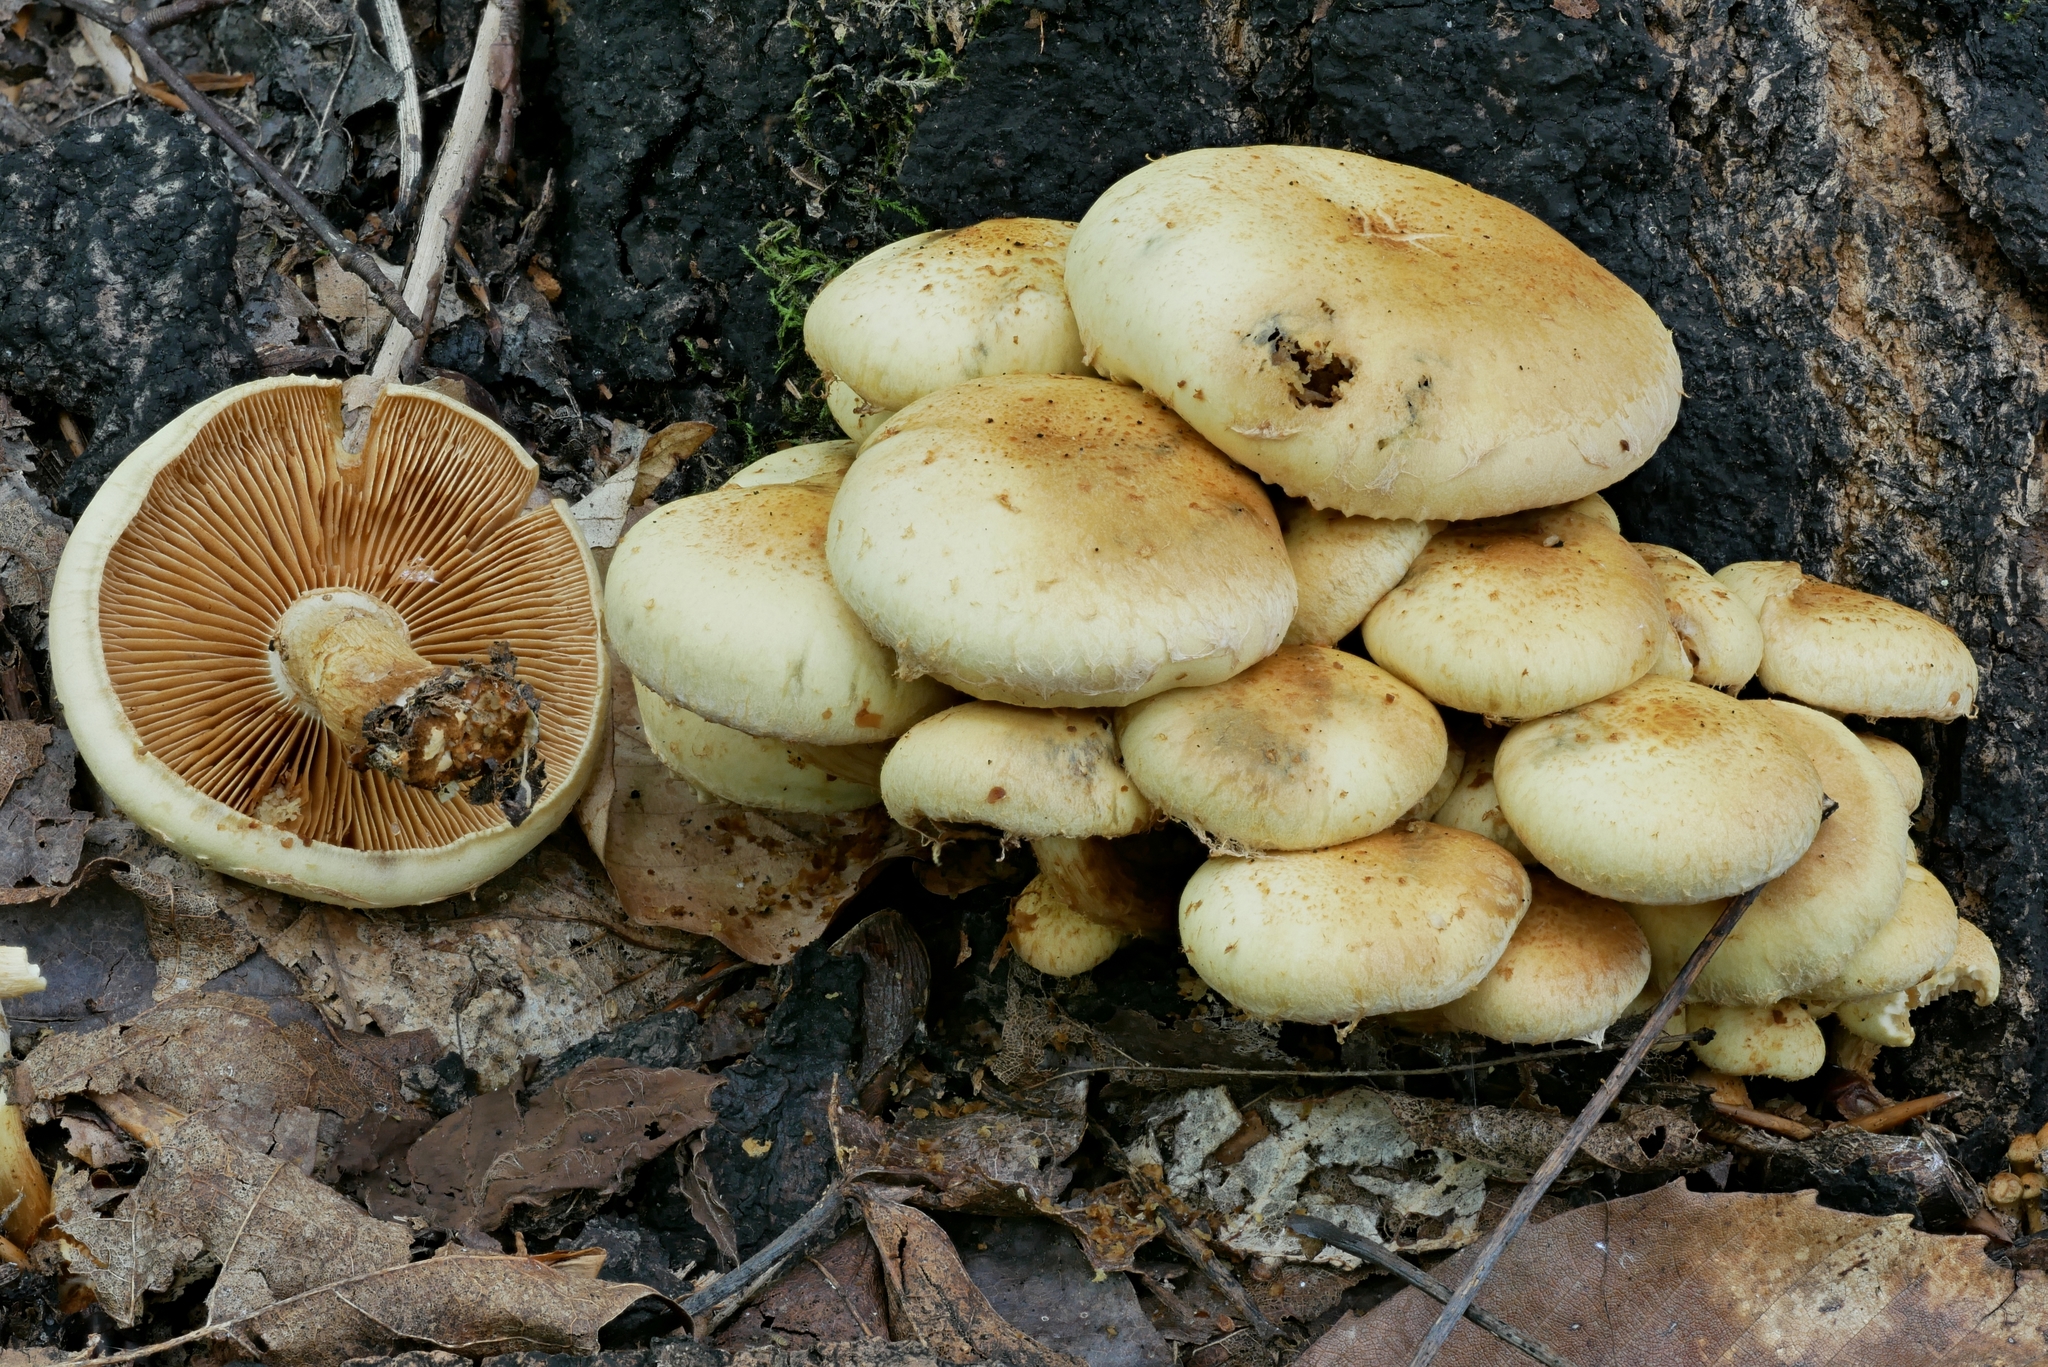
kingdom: Fungi
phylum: Basidiomycota
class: Agaricomycetes
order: Agaricales
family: Strophariaceae
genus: Pholiota
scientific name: Pholiota malicola
